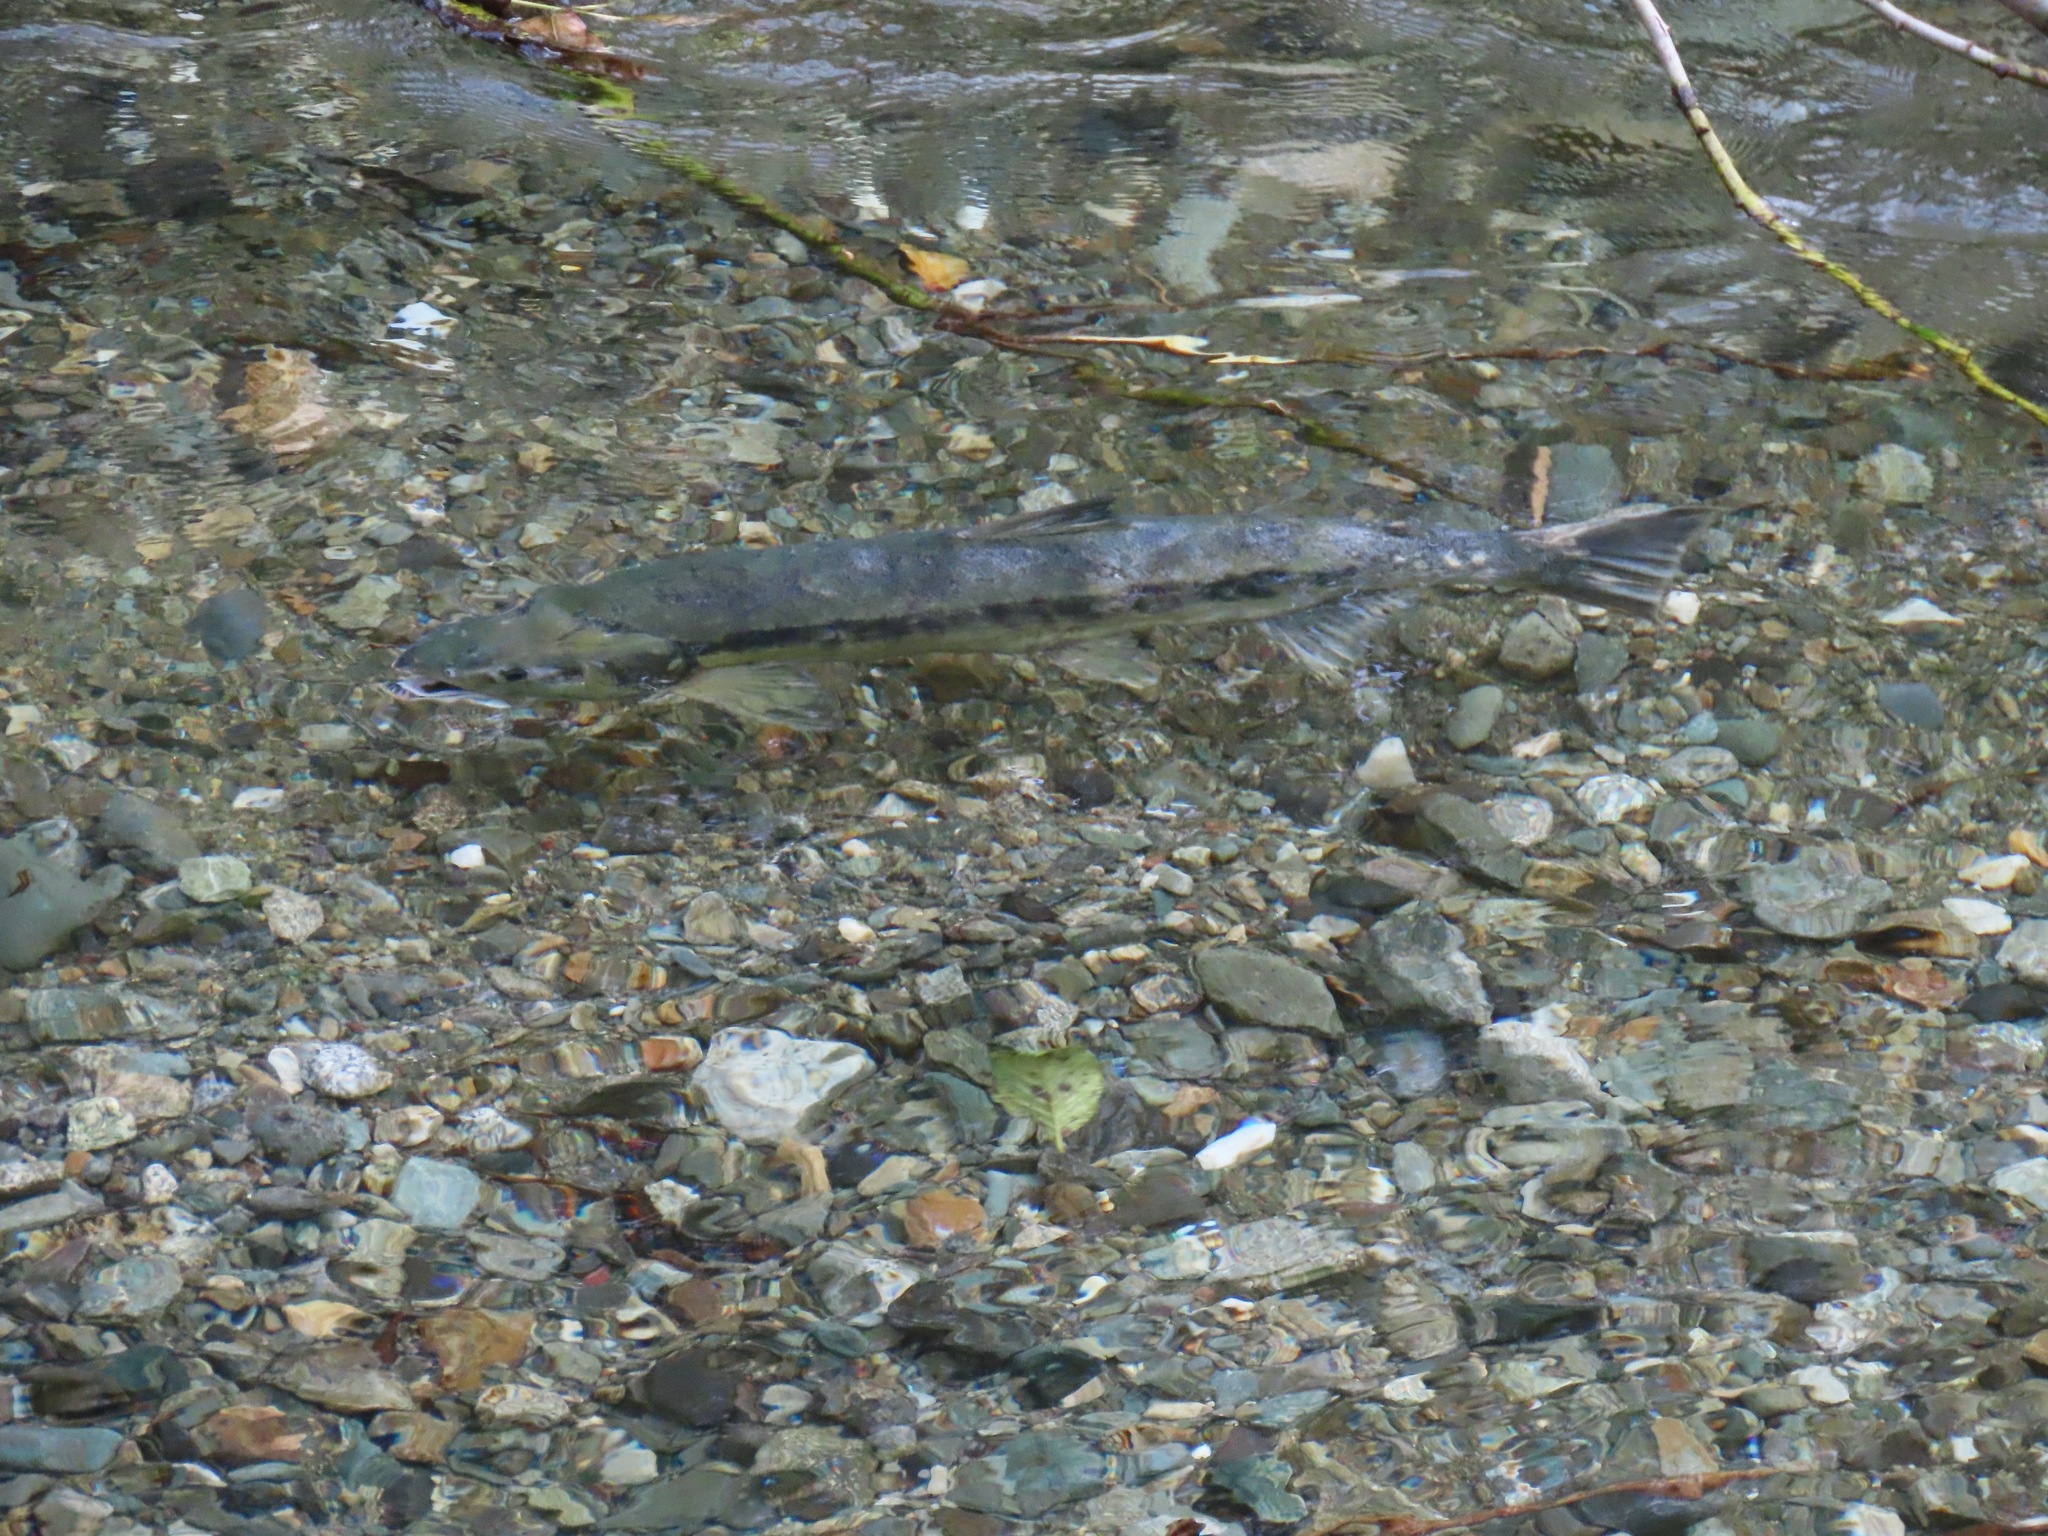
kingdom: Animalia
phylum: Chordata
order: Salmoniformes
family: Salmonidae
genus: Oncorhynchus
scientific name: Oncorhynchus keta
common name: Chum salmon
